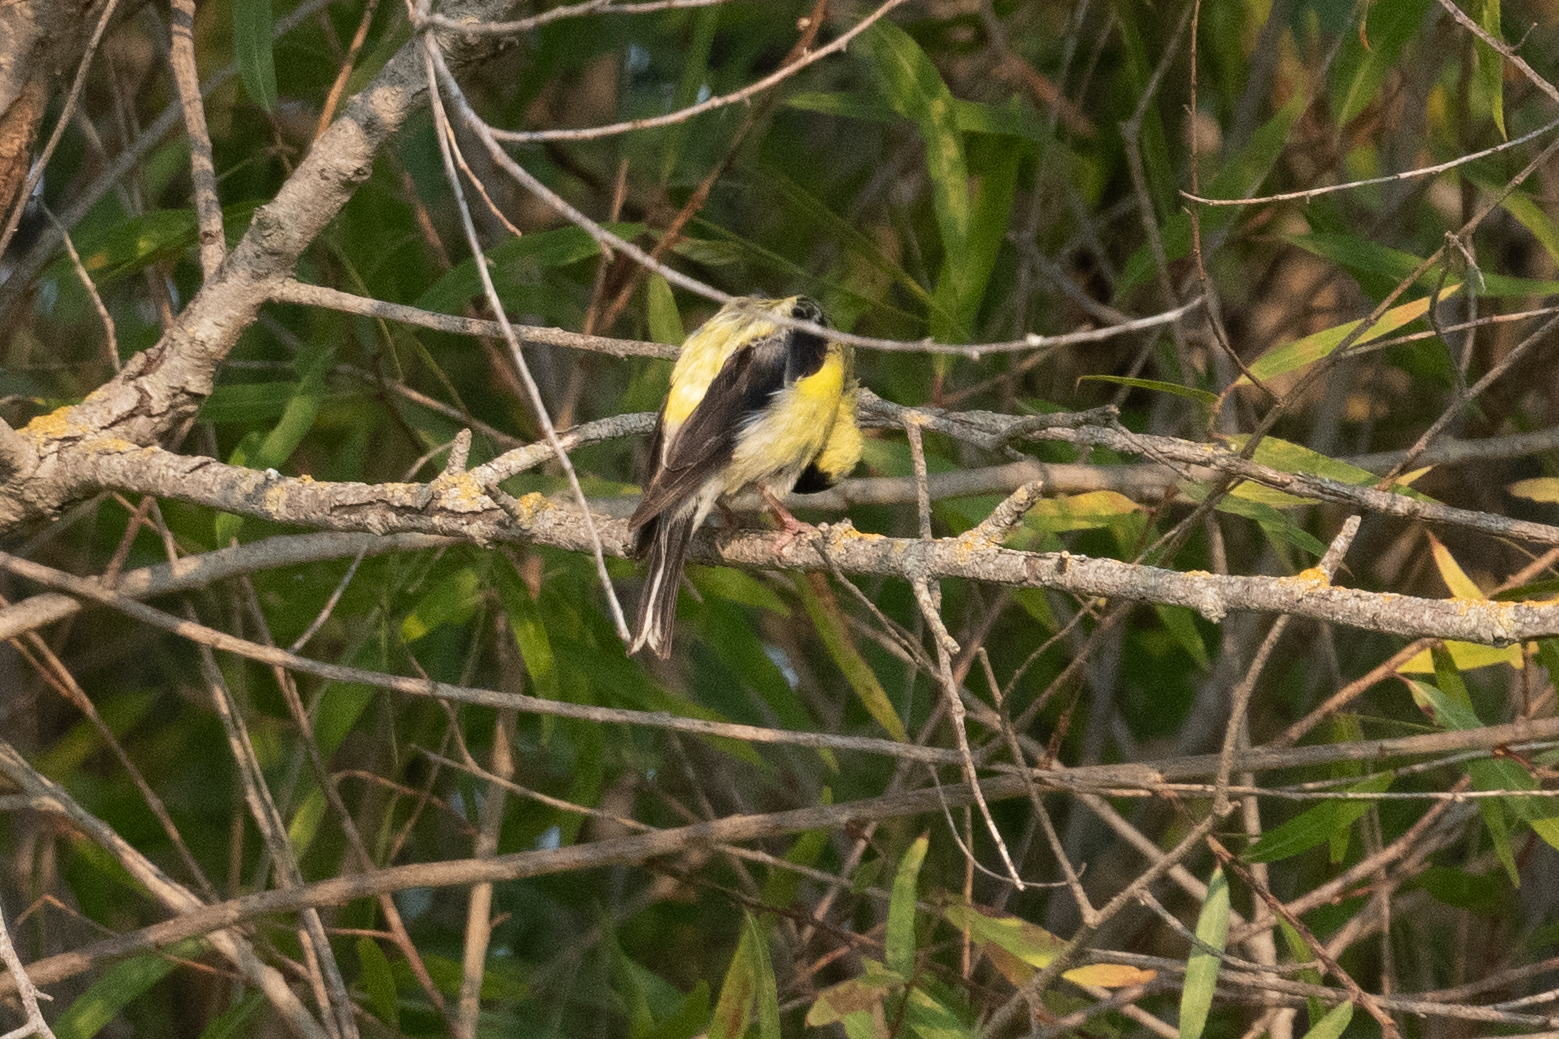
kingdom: Animalia
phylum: Chordata
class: Aves
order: Passeriformes
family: Fringillidae
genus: Spinus
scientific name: Spinus tristis
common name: American goldfinch
